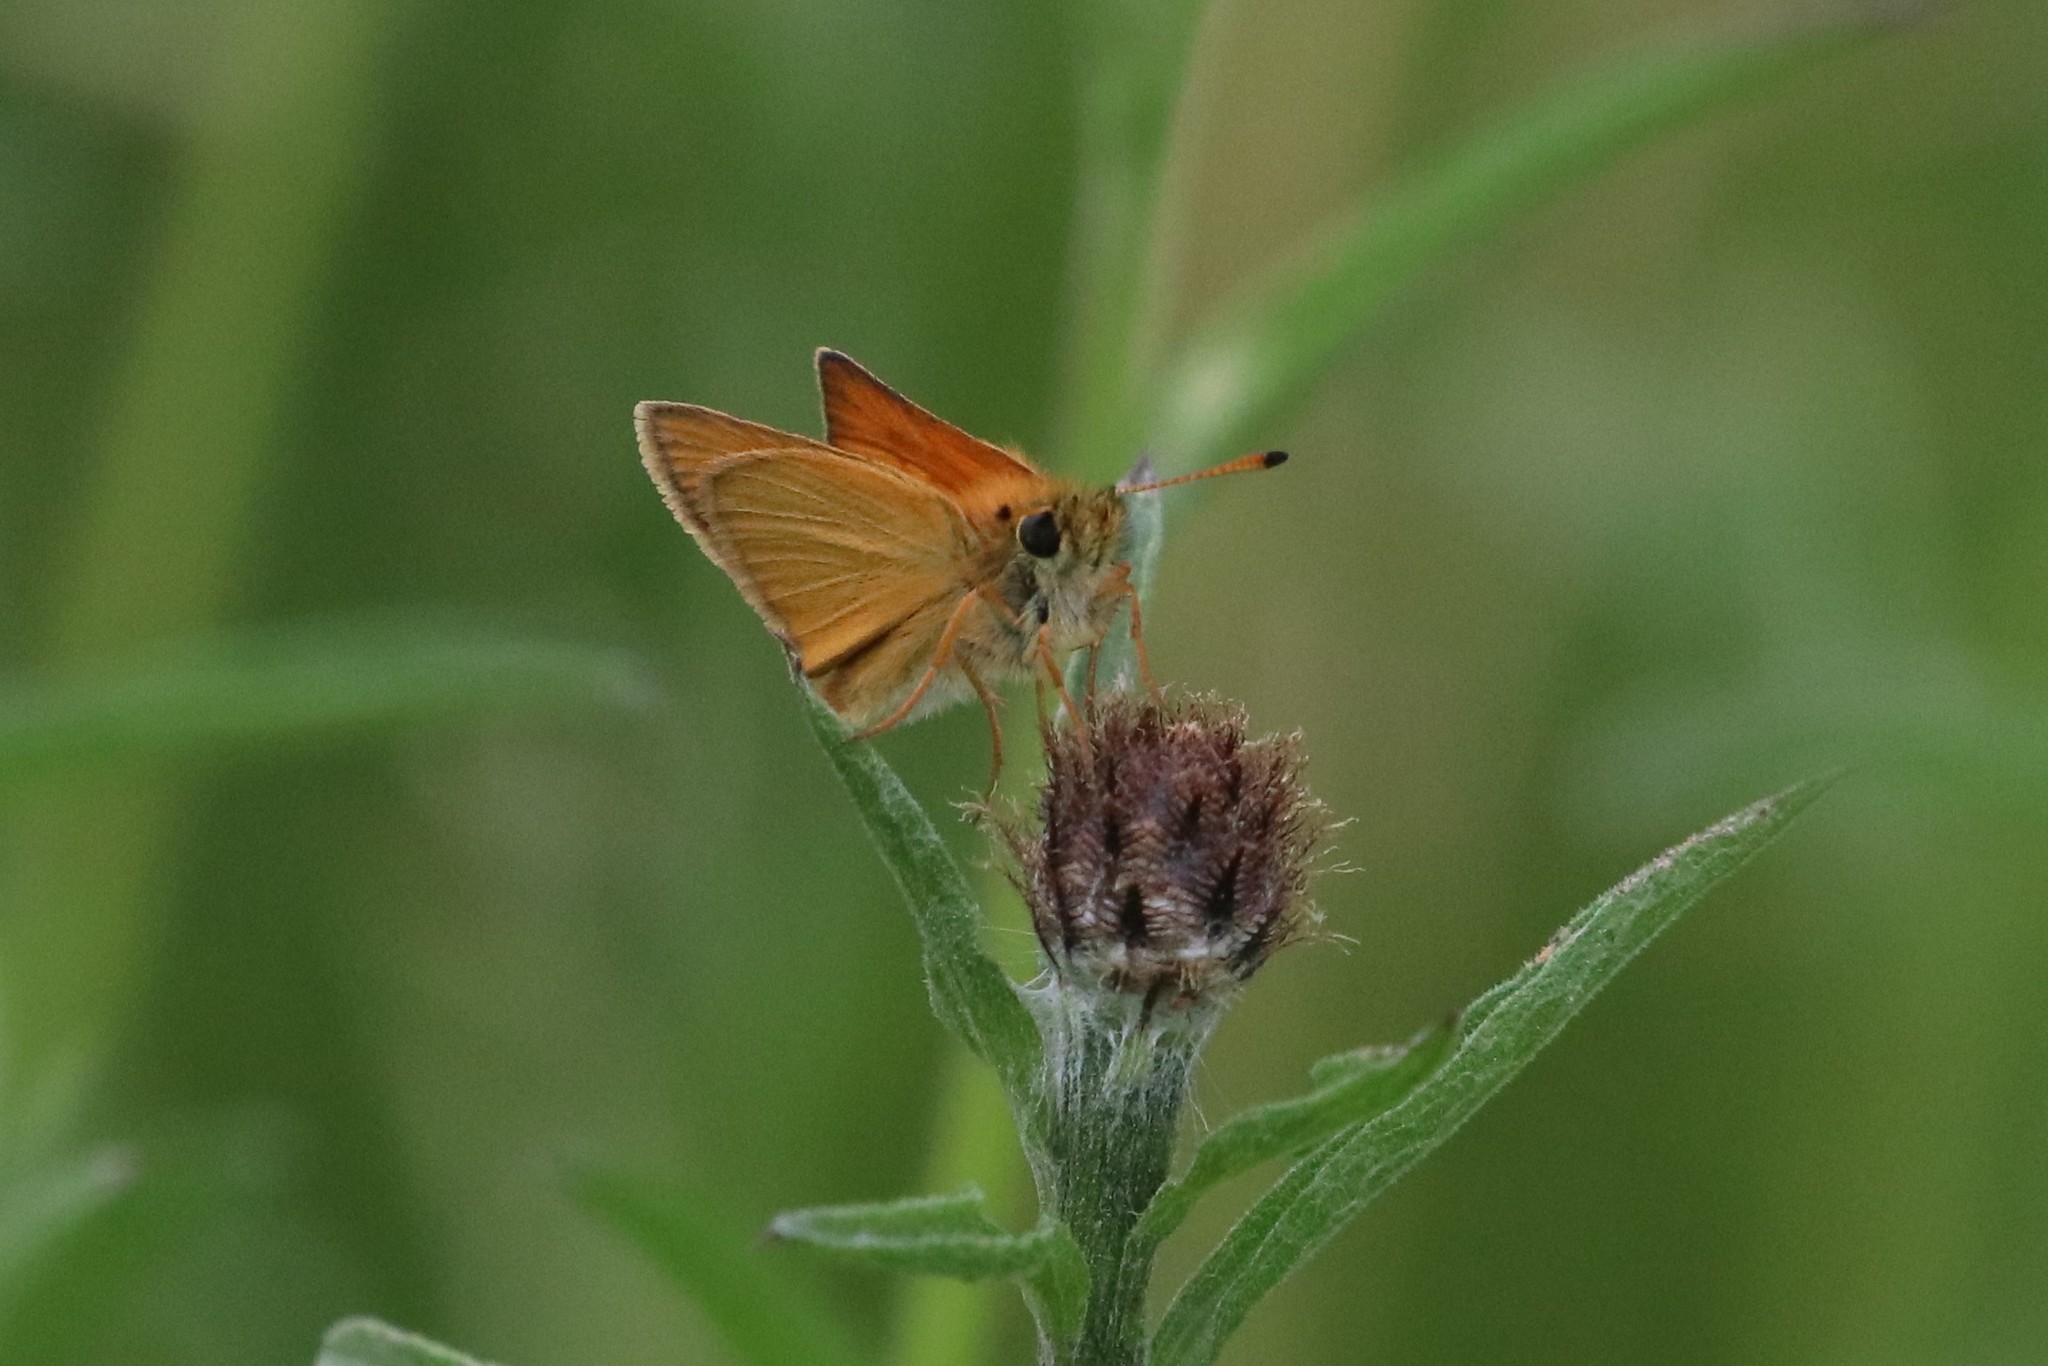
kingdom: Animalia
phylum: Arthropoda
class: Insecta
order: Lepidoptera
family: Hesperiidae
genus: Thymelicus
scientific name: Thymelicus lineola
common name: Essex skipper
